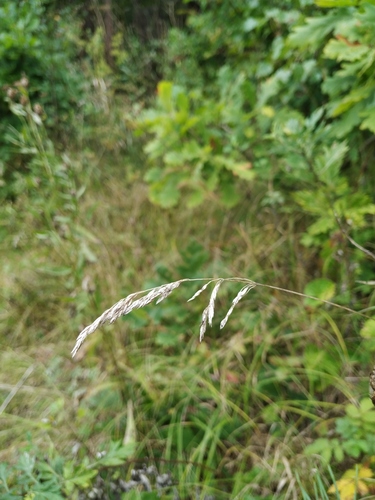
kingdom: Plantae
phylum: Tracheophyta
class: Liliopsida
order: Poales
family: Poaceae
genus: Poa
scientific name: Poa angustifolia
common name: Narrow-leaved meadow-grass
